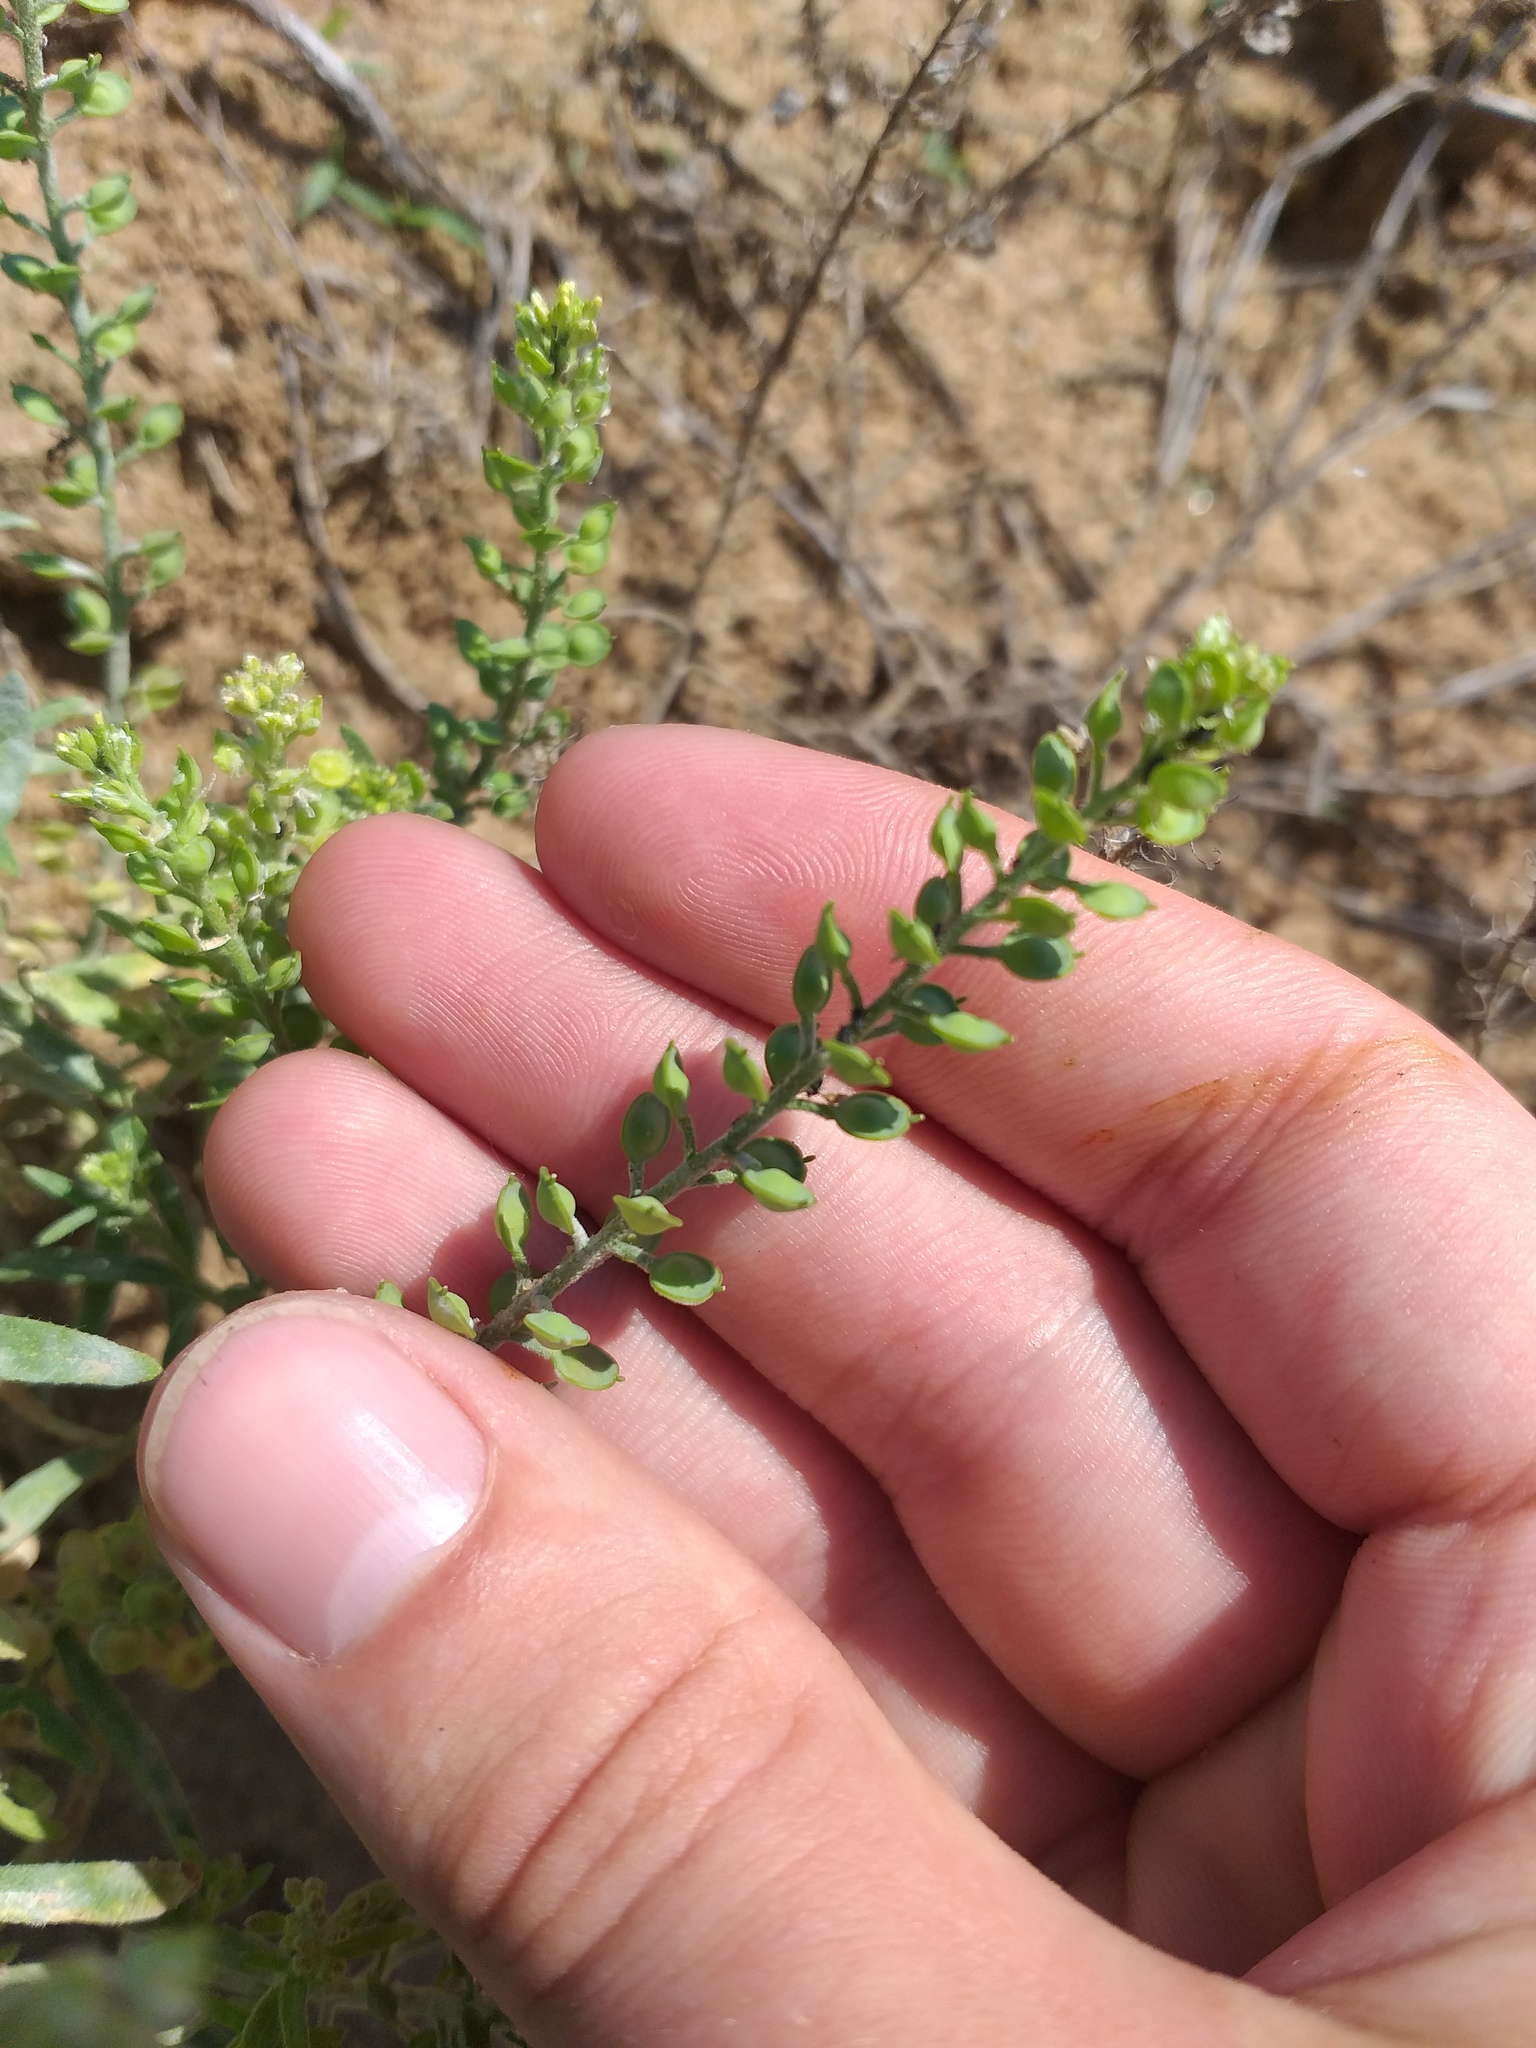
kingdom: Plantae
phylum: Tracheophyta
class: Magnoliopsida
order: Brassicales
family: Brassicaceae
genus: Alyssum
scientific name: Alyssum turkestanicum
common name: Desert alyssum
